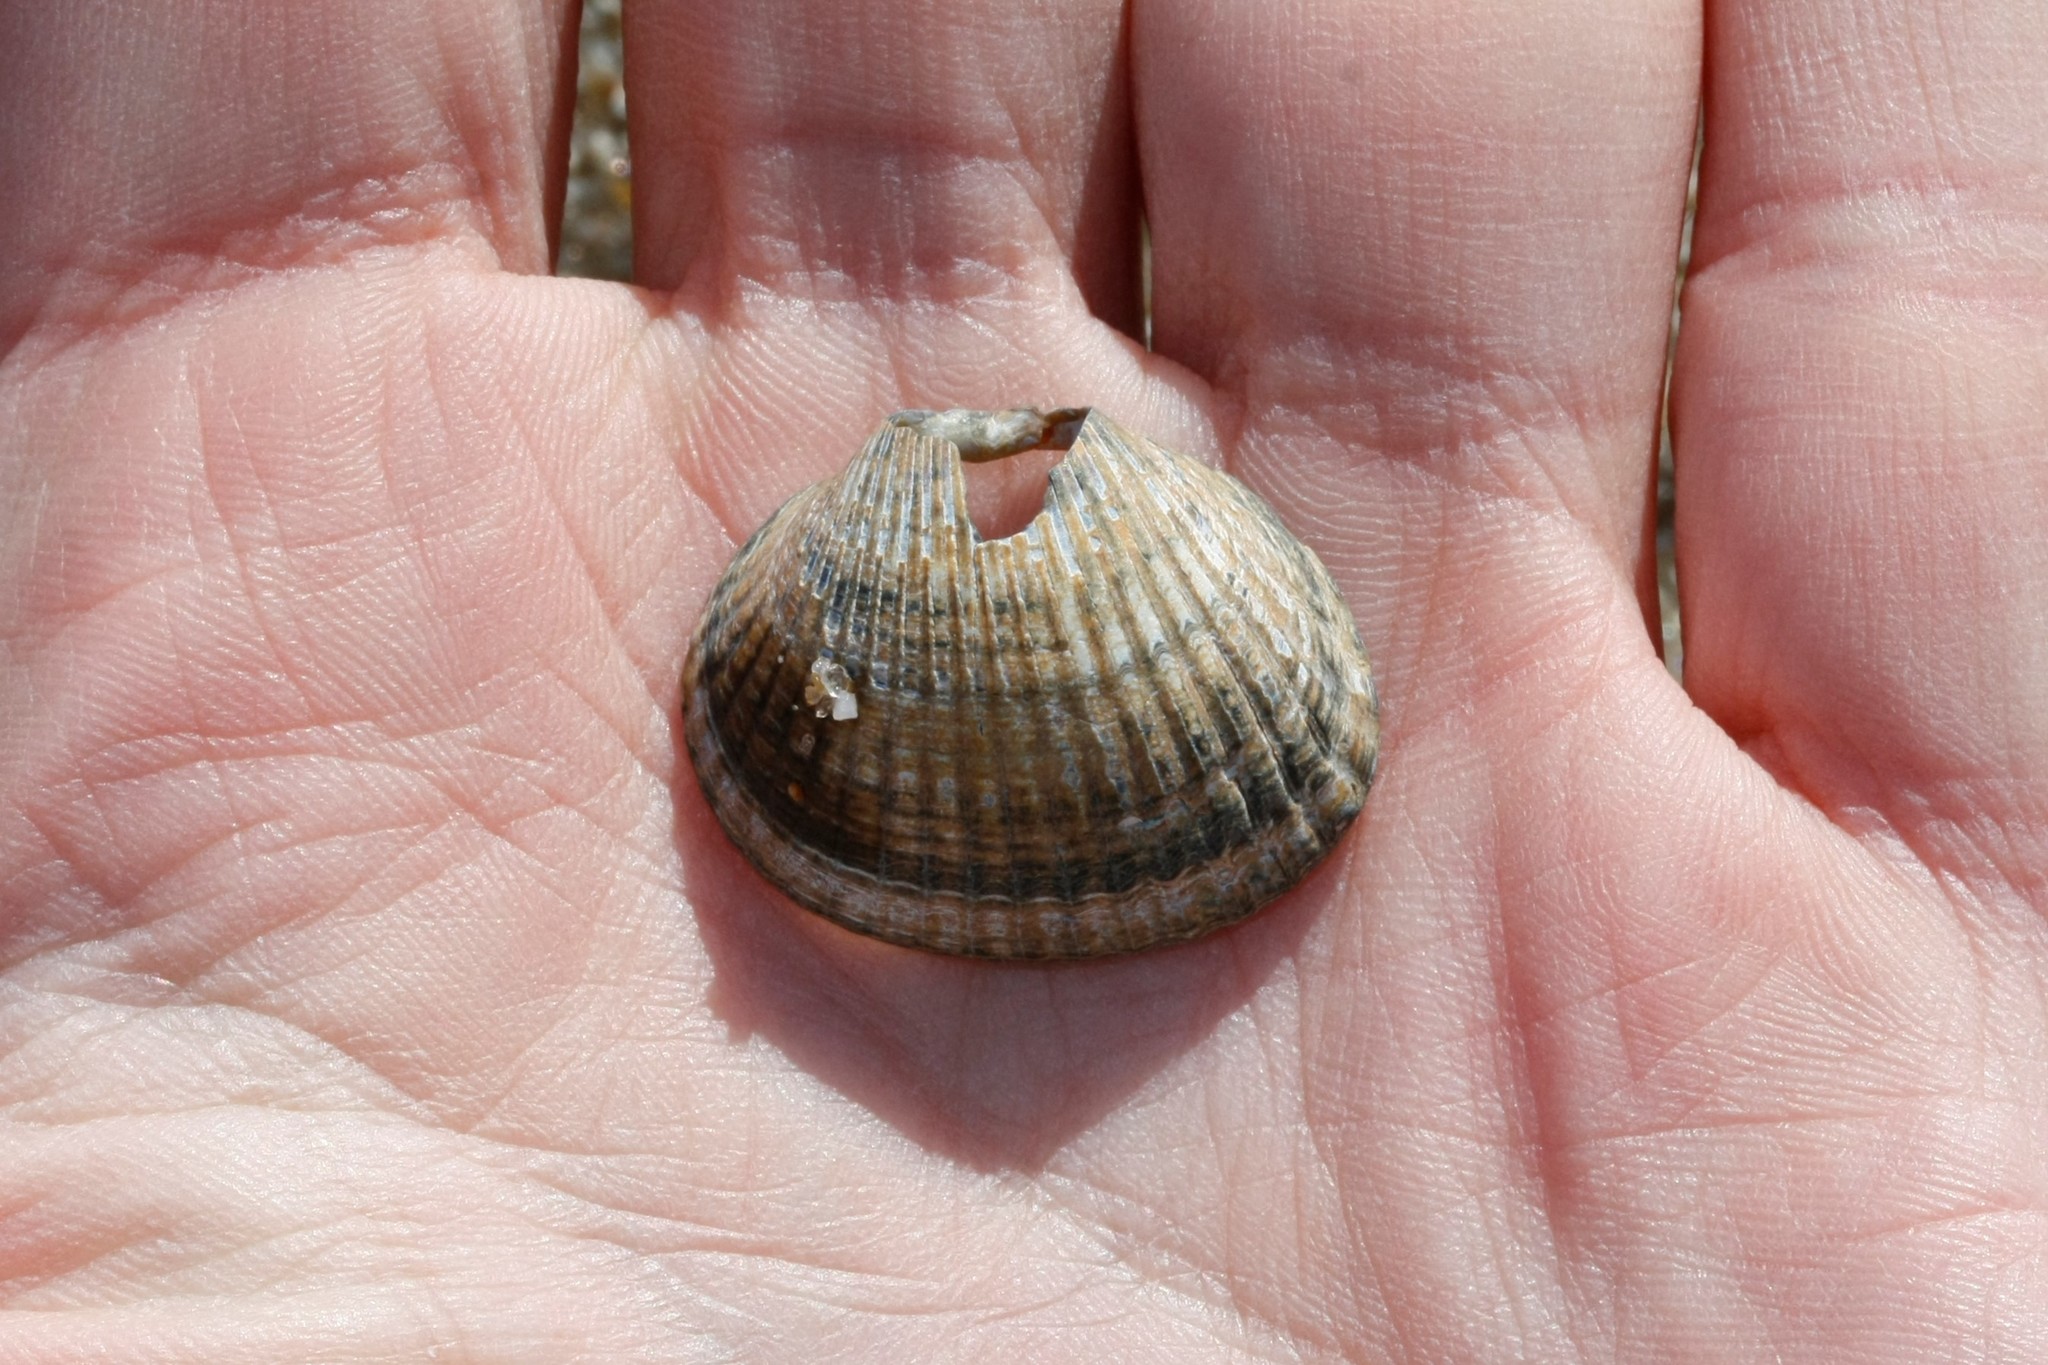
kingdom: Animalia
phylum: Mollusca
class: Bivalvia
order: Cardiida
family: Cardiidae
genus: Cerastoderma
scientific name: Cerastoderma edule
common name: Common cockle
